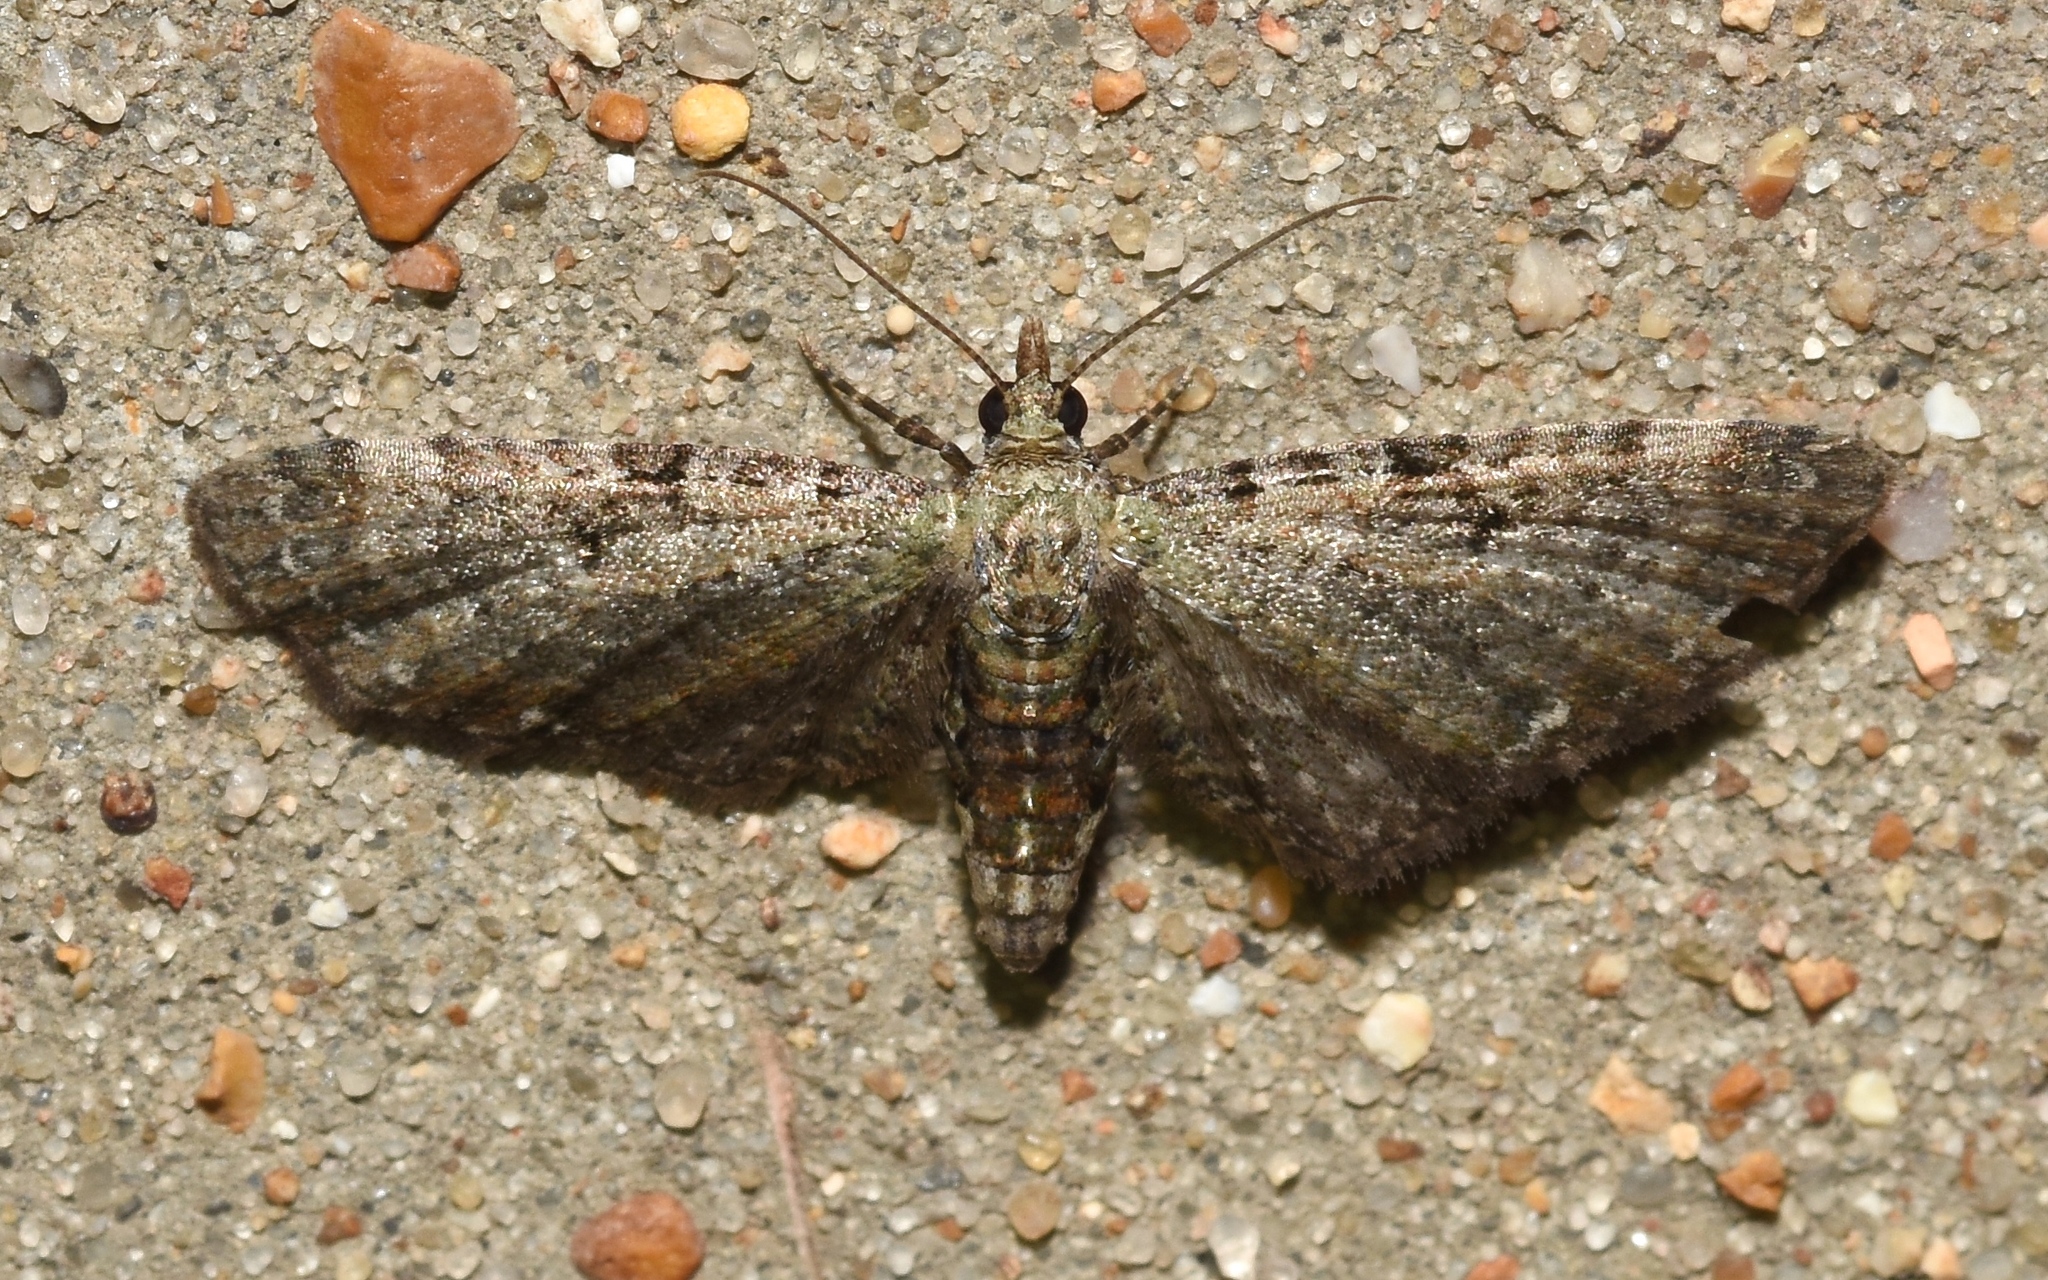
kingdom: Animalia
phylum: Arthropoda
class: Insecta
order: Lepidoptera
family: Geometridae
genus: Eupithecia
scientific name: Eupithecia miserulata
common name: Common eupithecia
